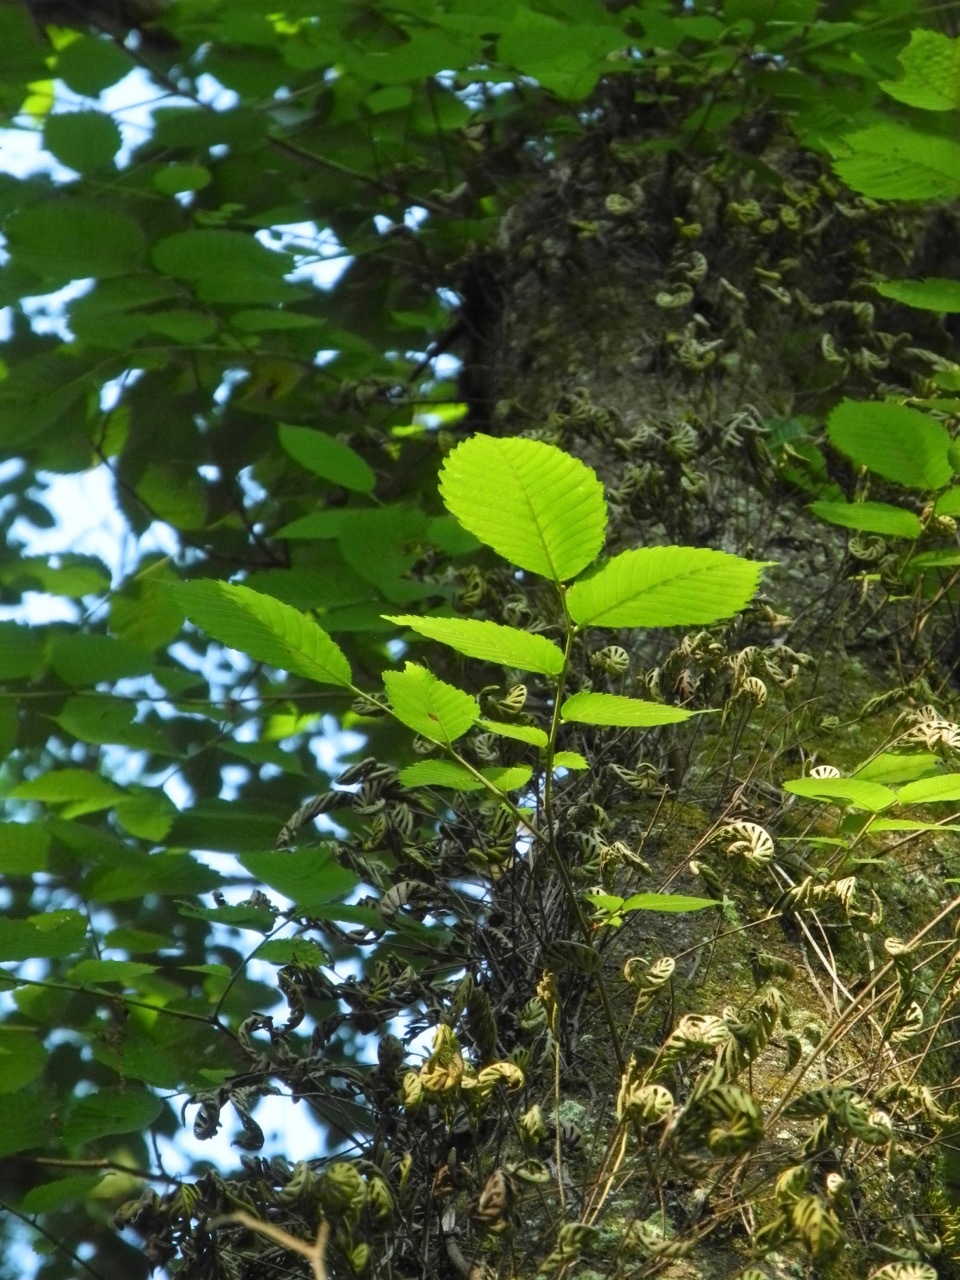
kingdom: Plantae
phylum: Tracheophyta
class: Polypodiopsida
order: Polypodiales
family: Polypodiaceae
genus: Pleopeltis
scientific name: Pleopeltis michauxiana
